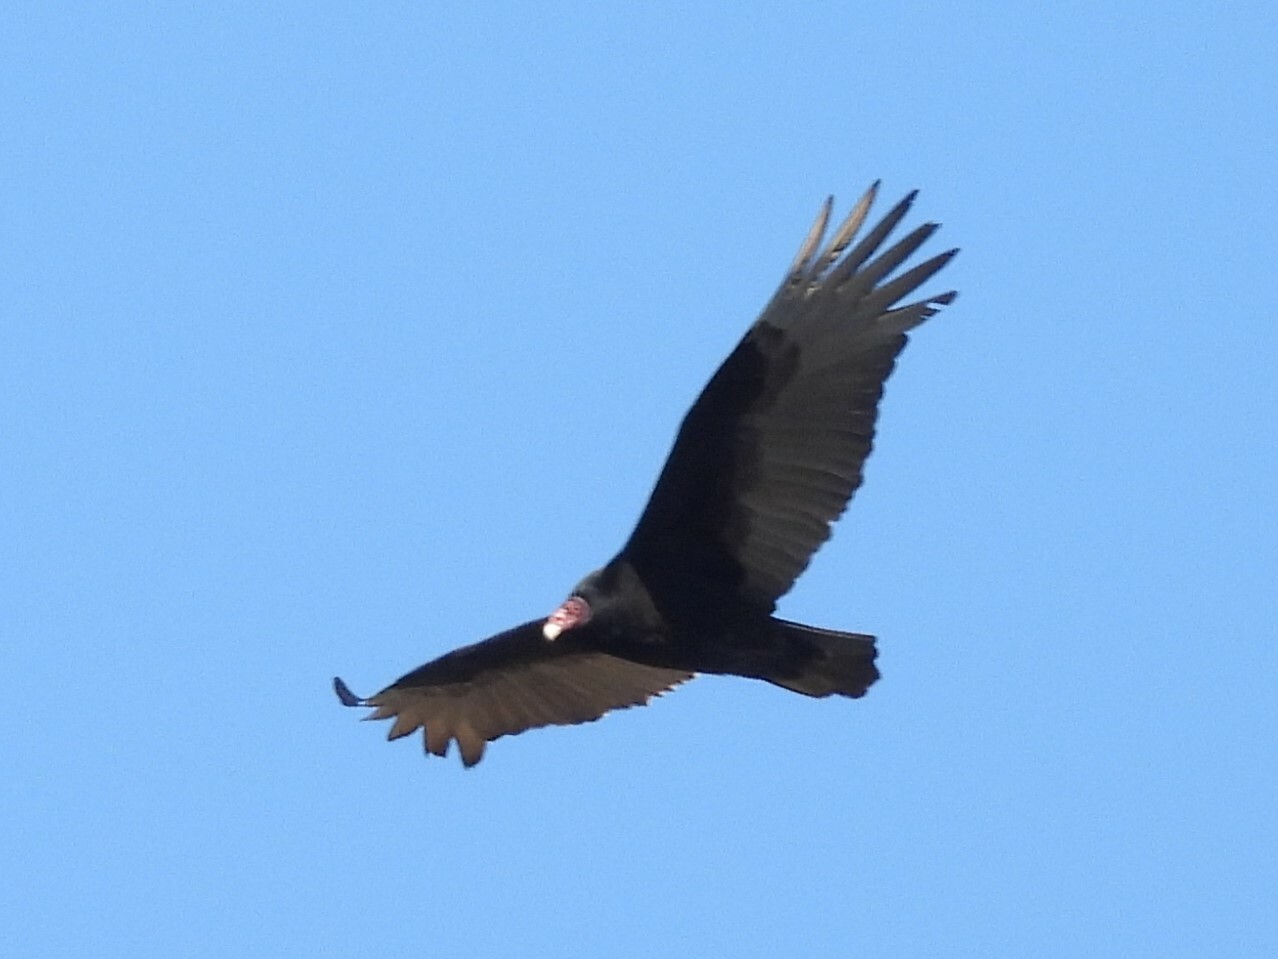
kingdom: Animalia
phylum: Chordata
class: Aves
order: Accipitriformes
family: Cathartidae
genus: Cathartes
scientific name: Cathartes aura
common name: Turkey vulture
